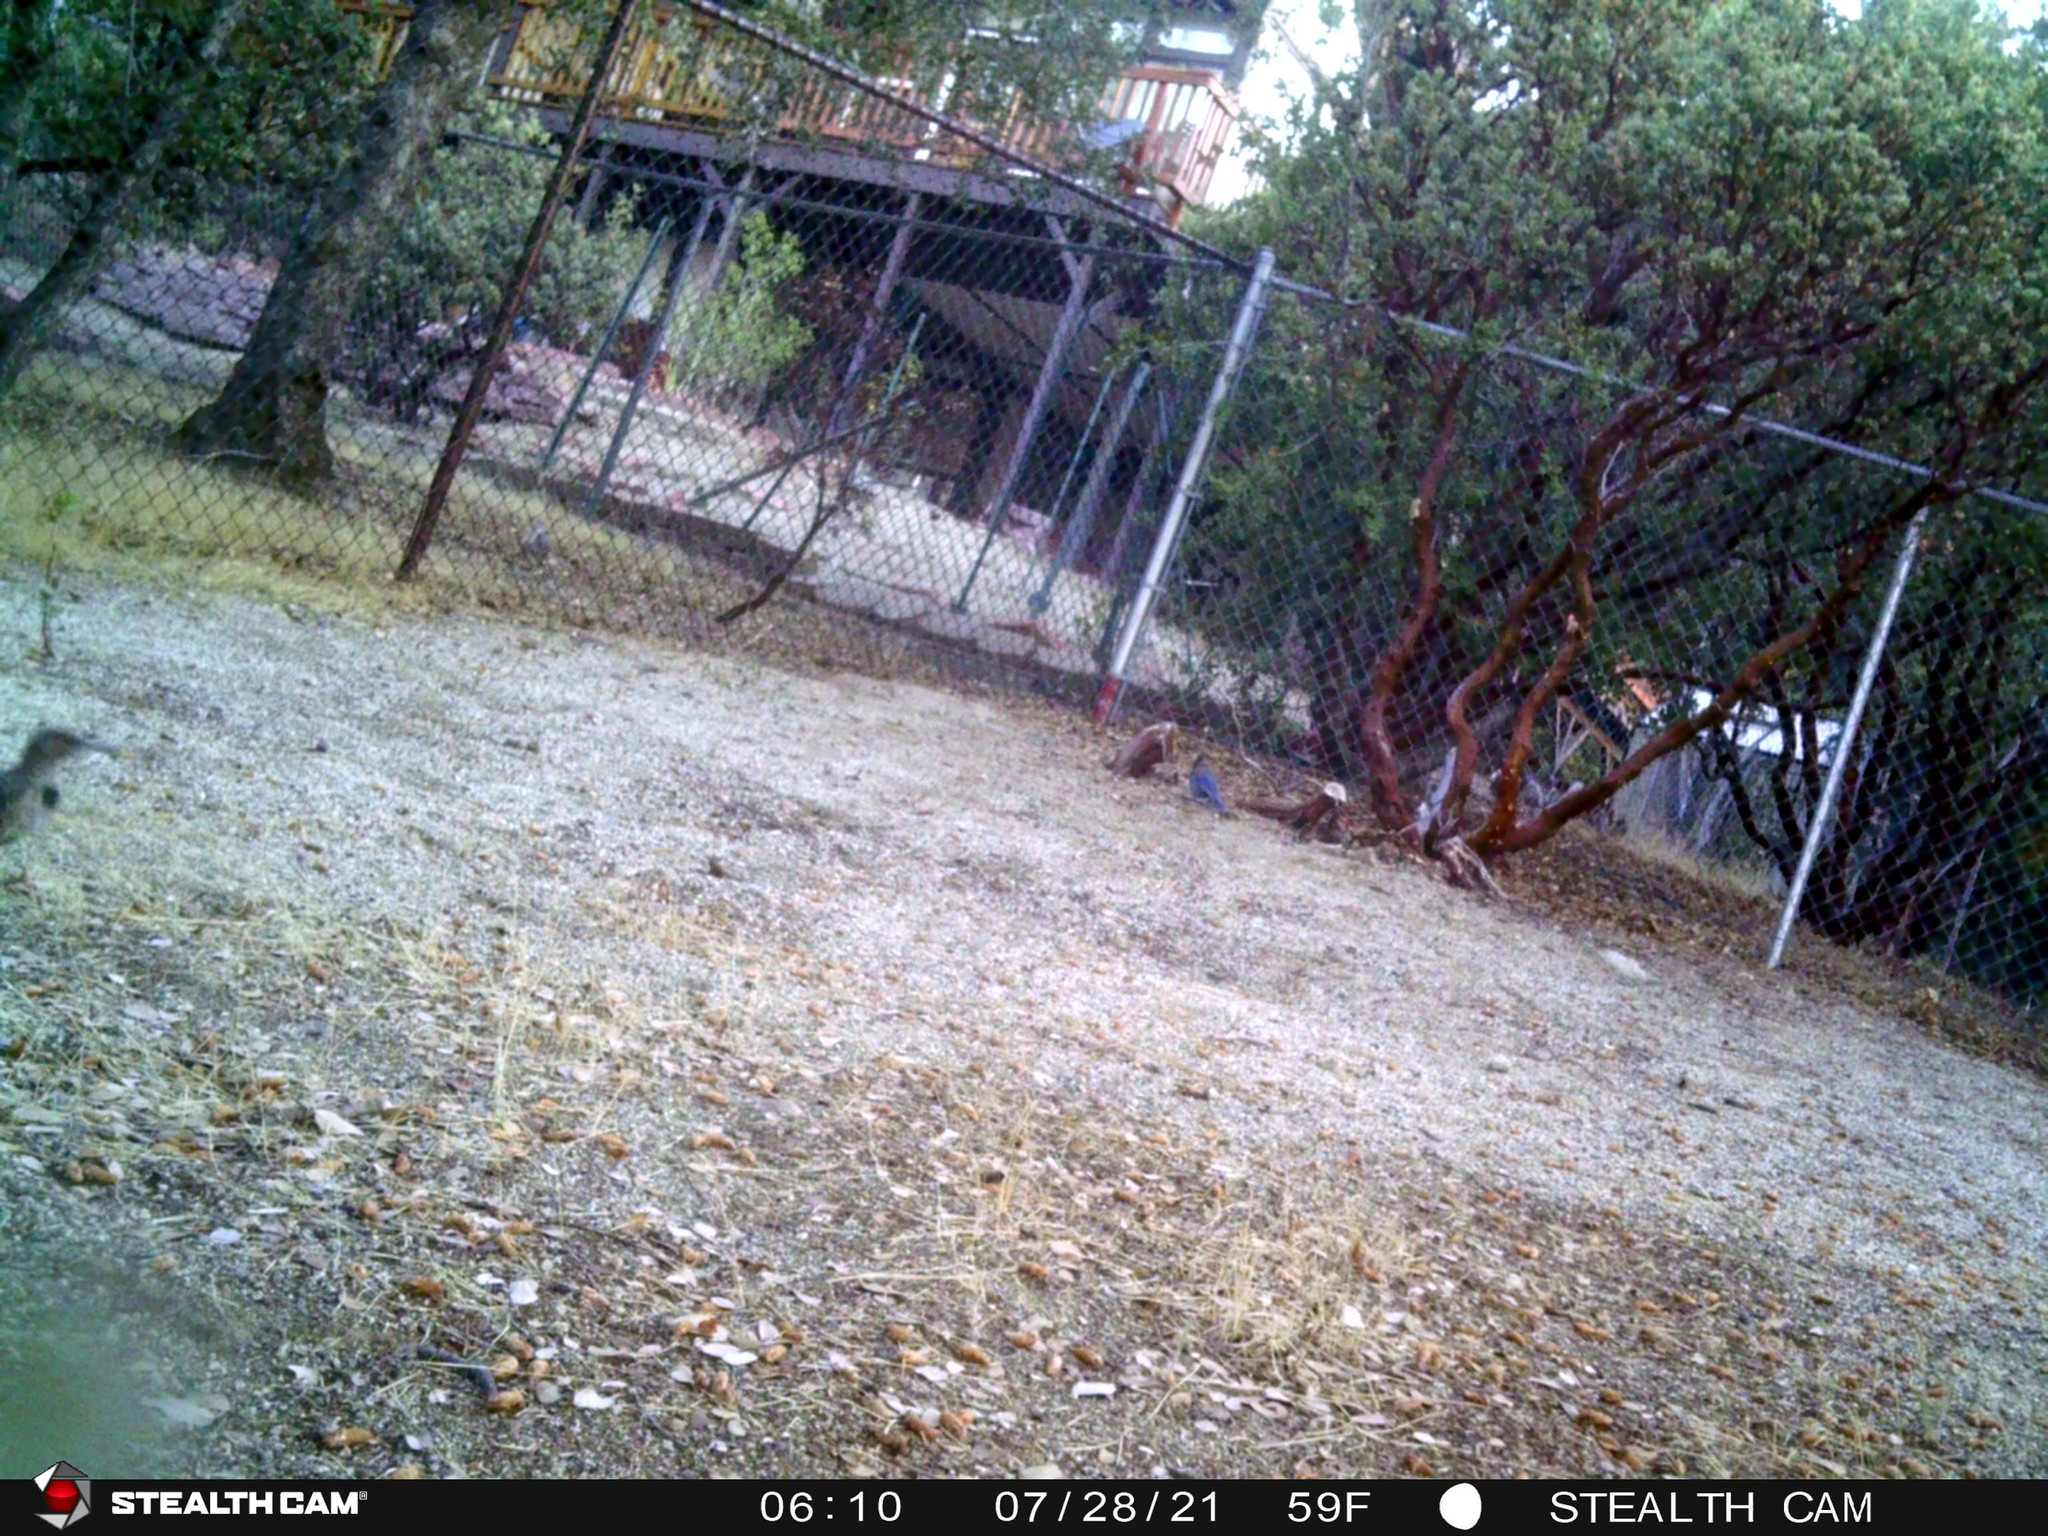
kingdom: Animalia
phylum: Chordata
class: Aves
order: Piciformes
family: Picidae
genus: Colaptes
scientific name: Colaptes auratus
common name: Northern flicker
